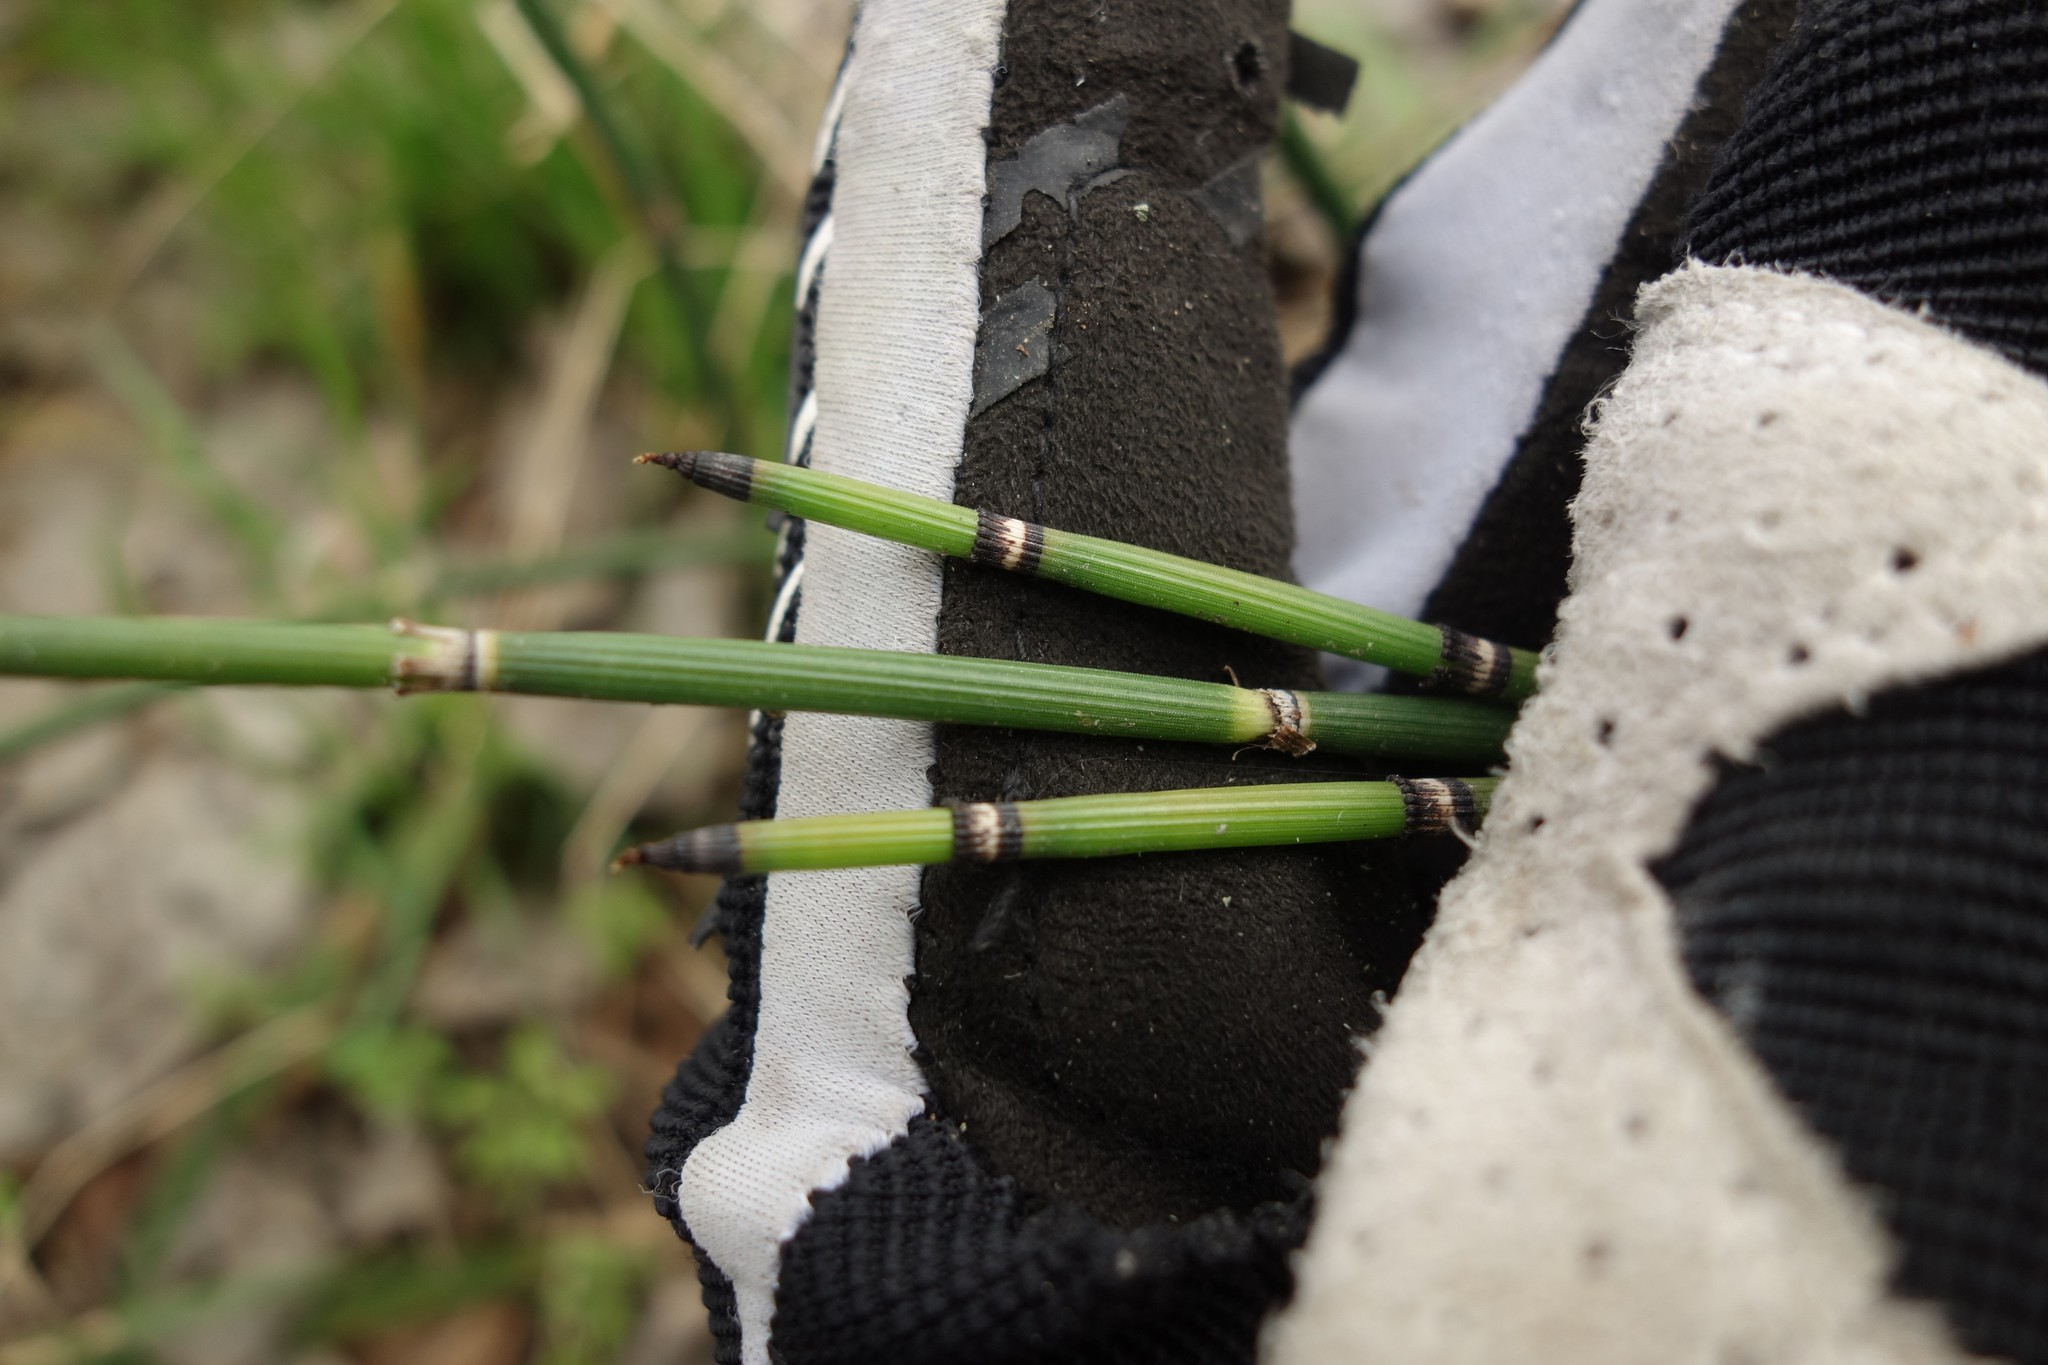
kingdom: Plantae
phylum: Tracheophyta
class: Polypodiopsida
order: Equisetales
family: Equisetaceae
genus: Equisetum
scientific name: Equisetum hyemale
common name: Rough horsetail
